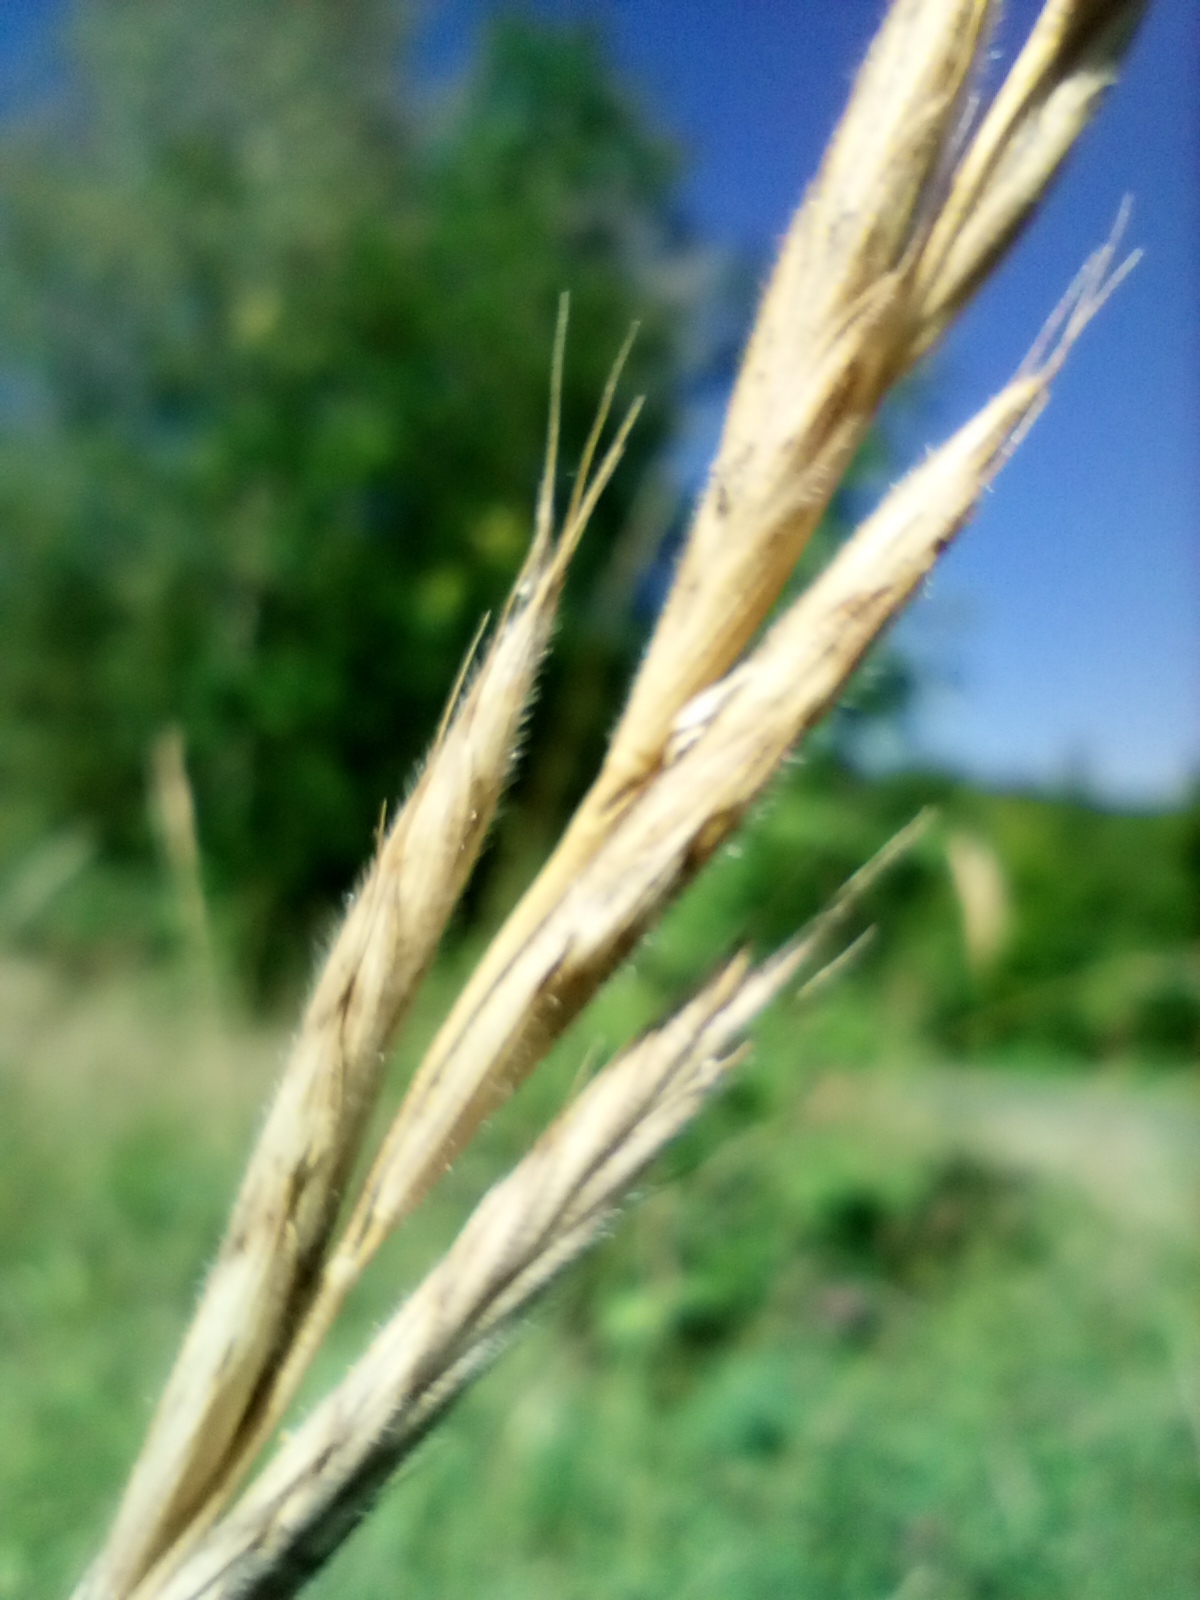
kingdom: Plantae
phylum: Tracheophyta
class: Liliopsida
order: Poales
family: Poaceae
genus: Brachypodium
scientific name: Brachypodium pinnatum
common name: Tor grass
